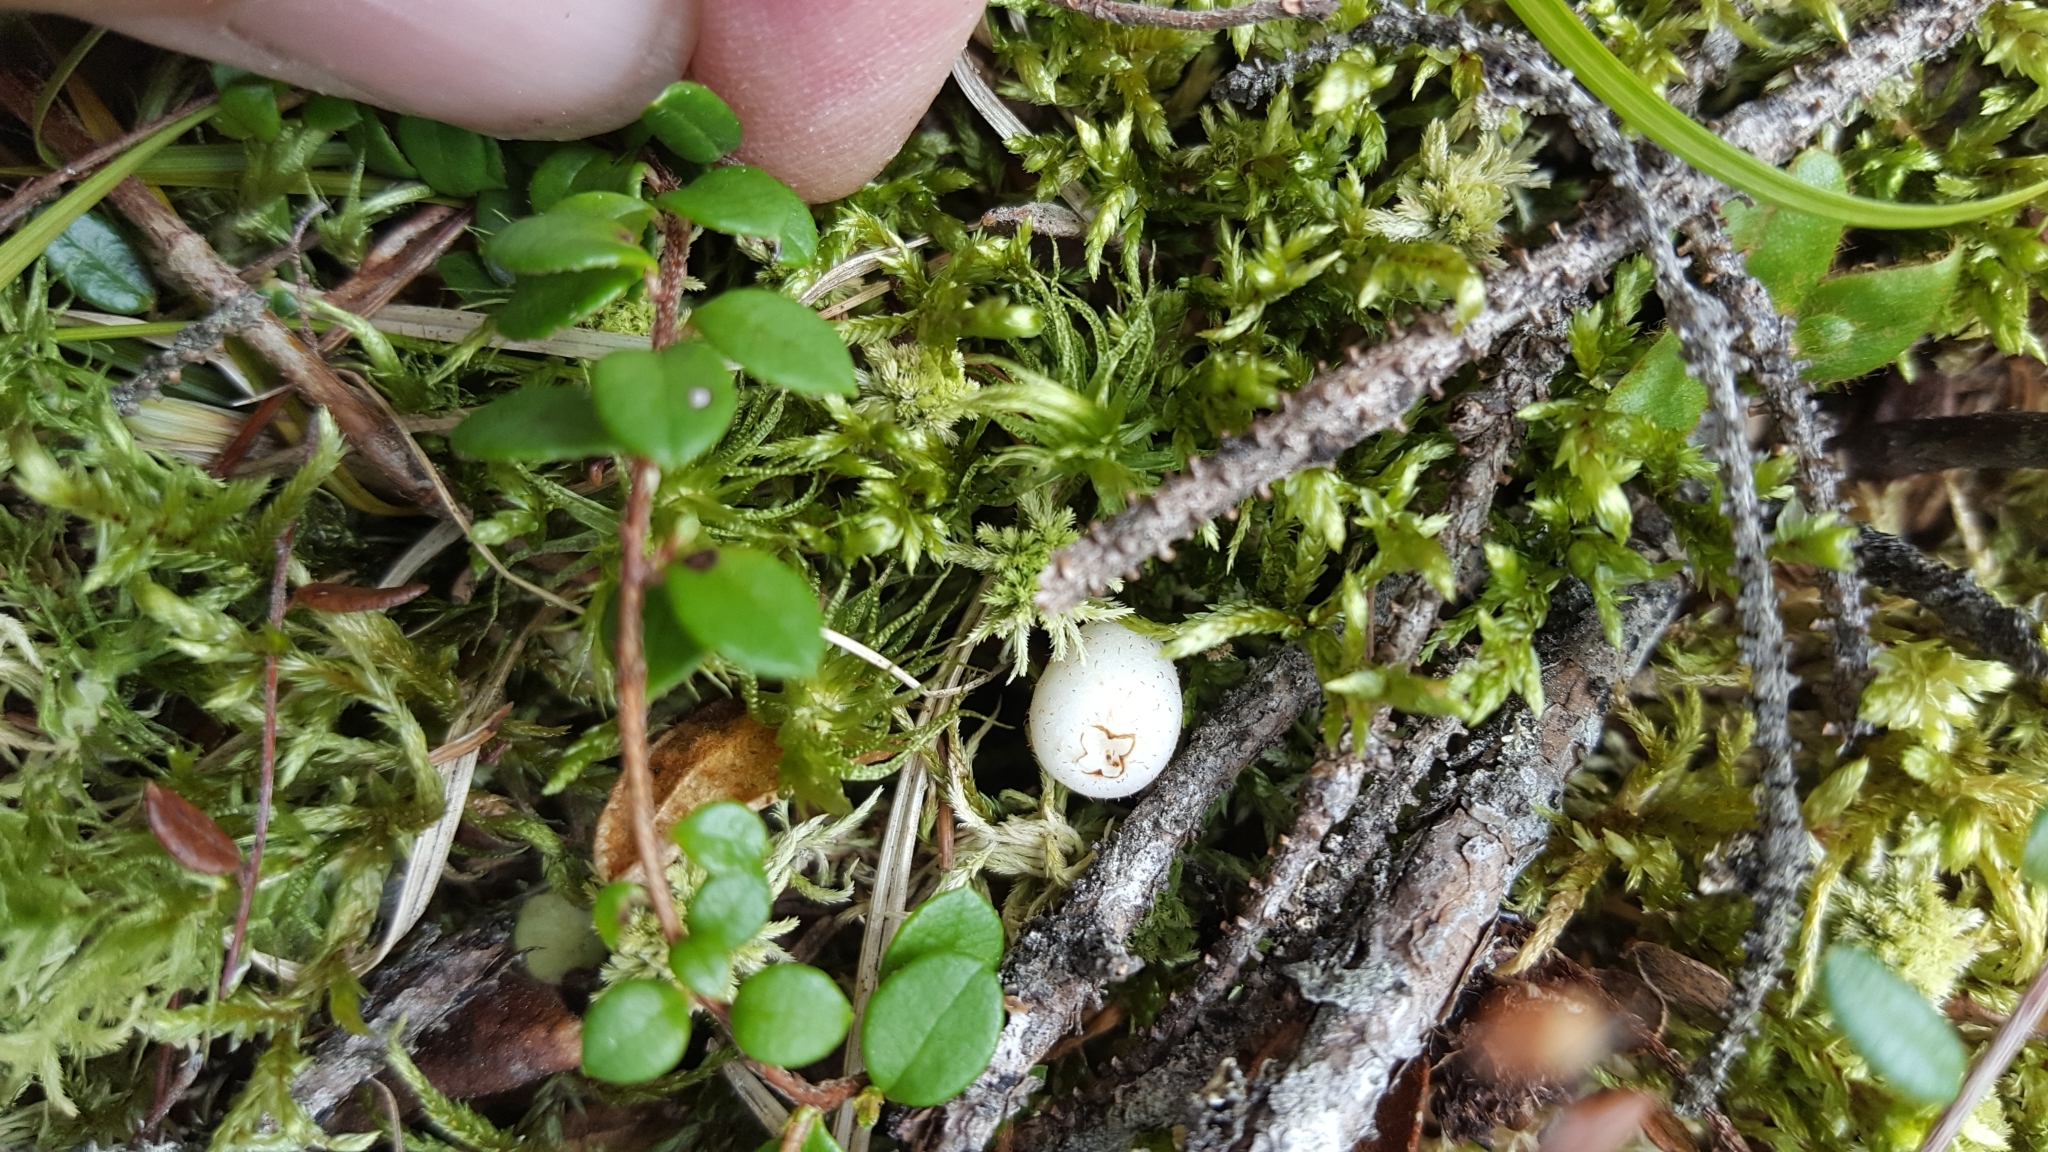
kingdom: Plantae
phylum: Tracheophyta
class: Magnoliopsida
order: Ericales
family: Ericaceae
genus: Gaultheria
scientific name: Gaultheria hispidula
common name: Cancer wintergreen
